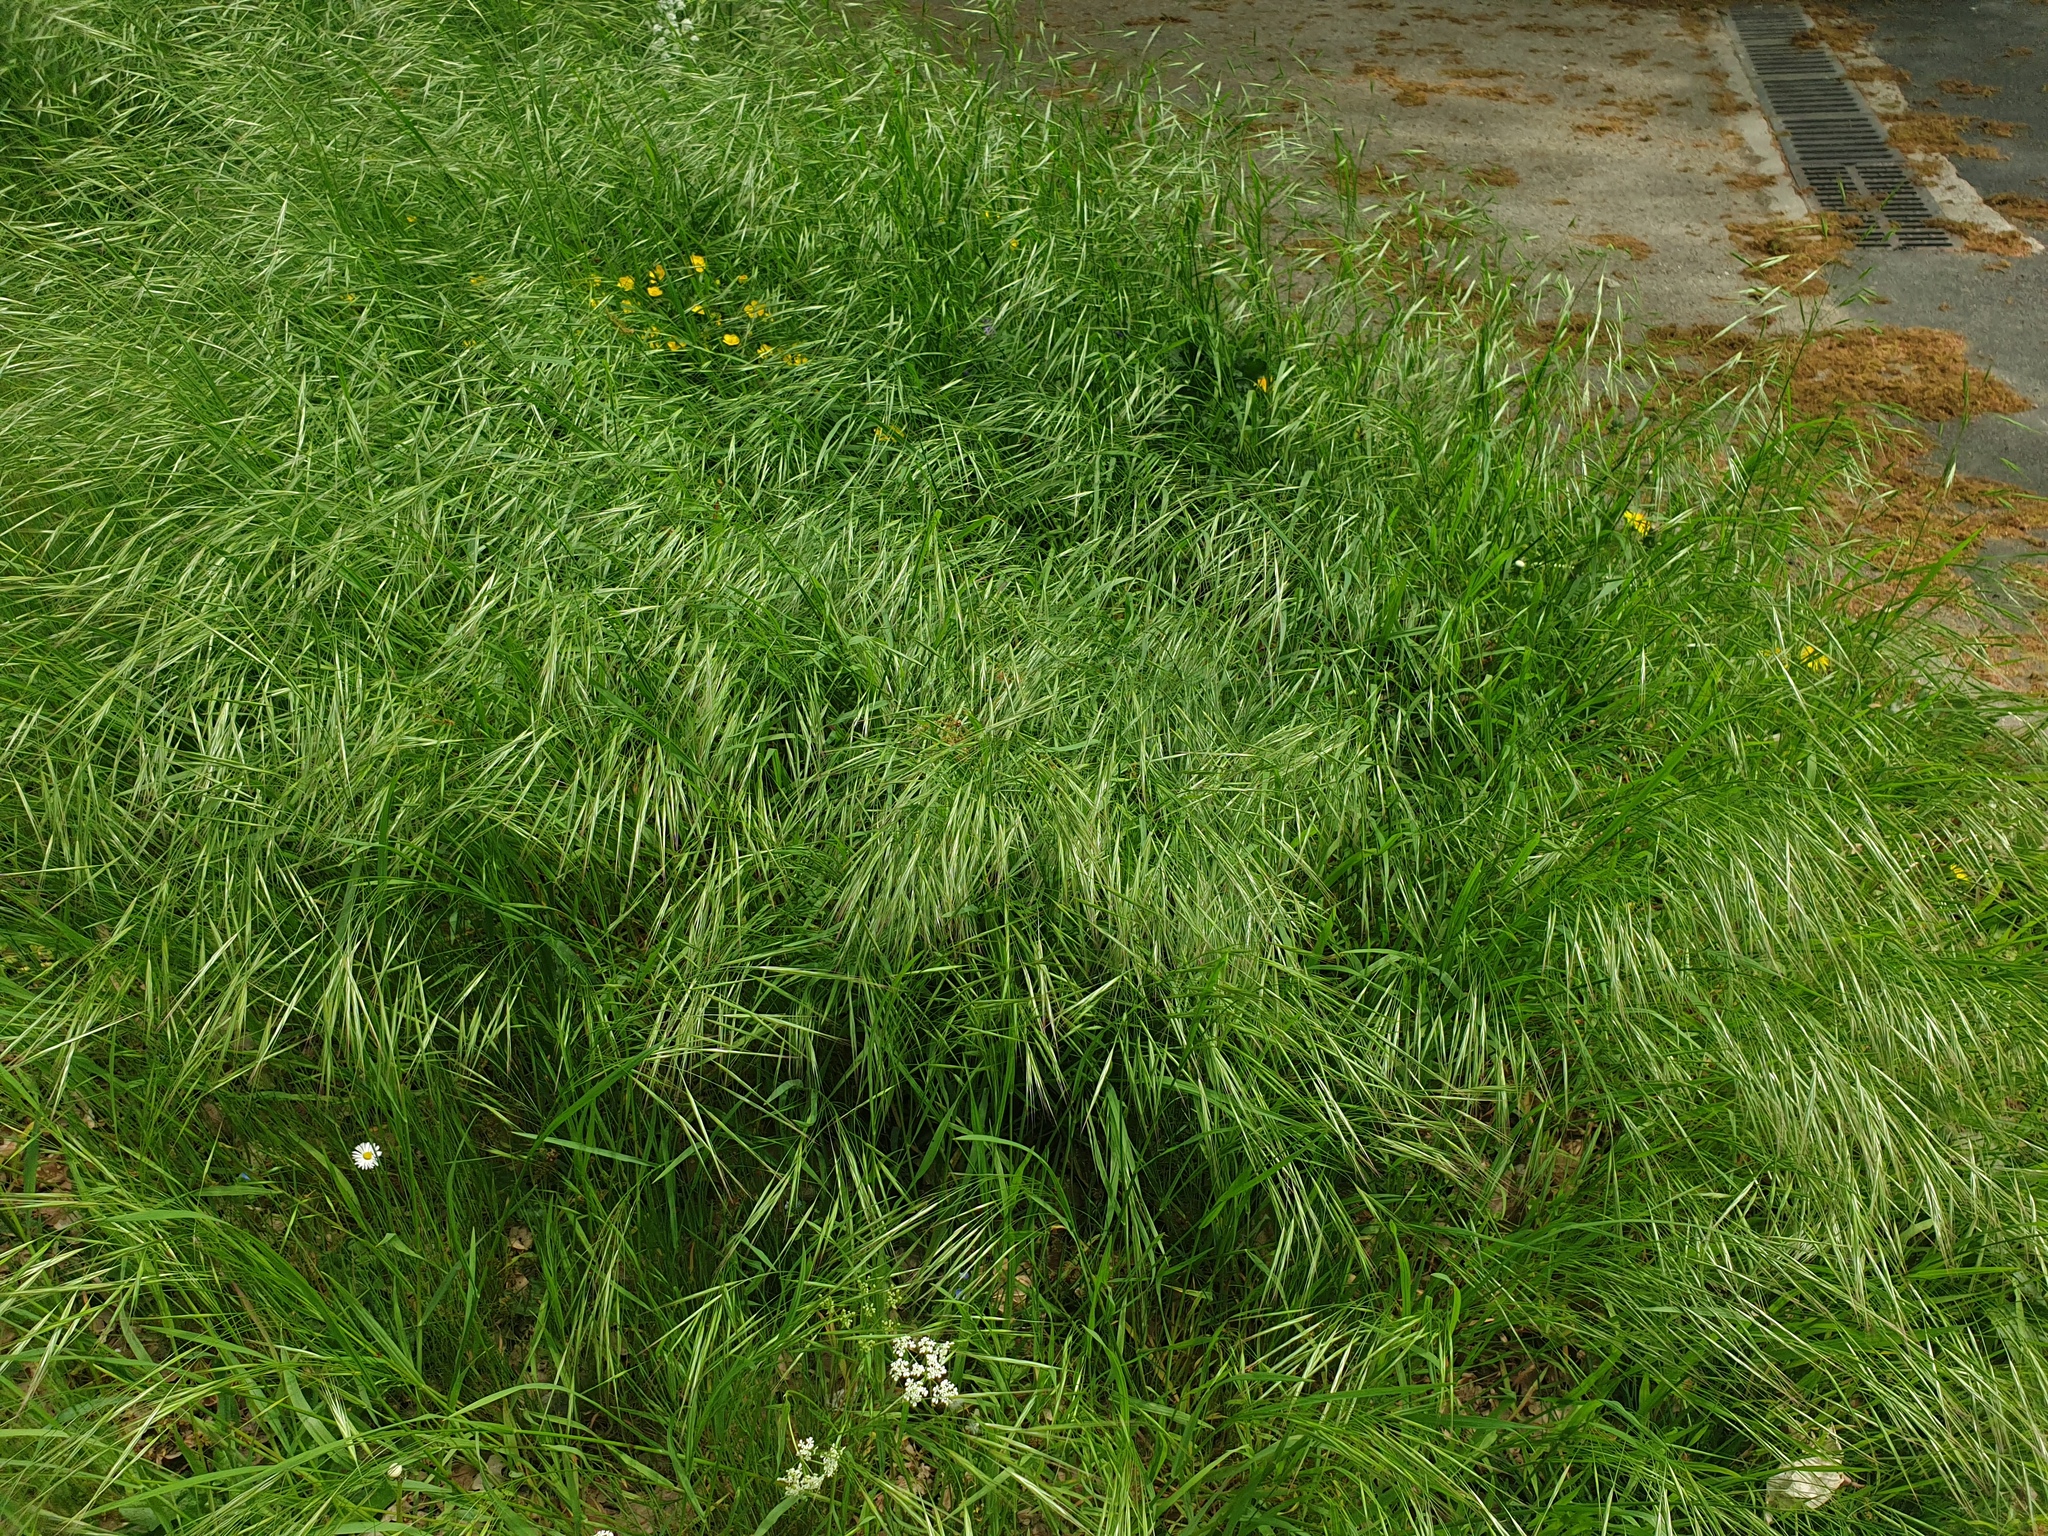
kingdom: Plantae
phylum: Tracheophyta
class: Liliopsida
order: Poales
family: Poaceae
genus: Bromus
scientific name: Bromus sterilis
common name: Poverty brome
